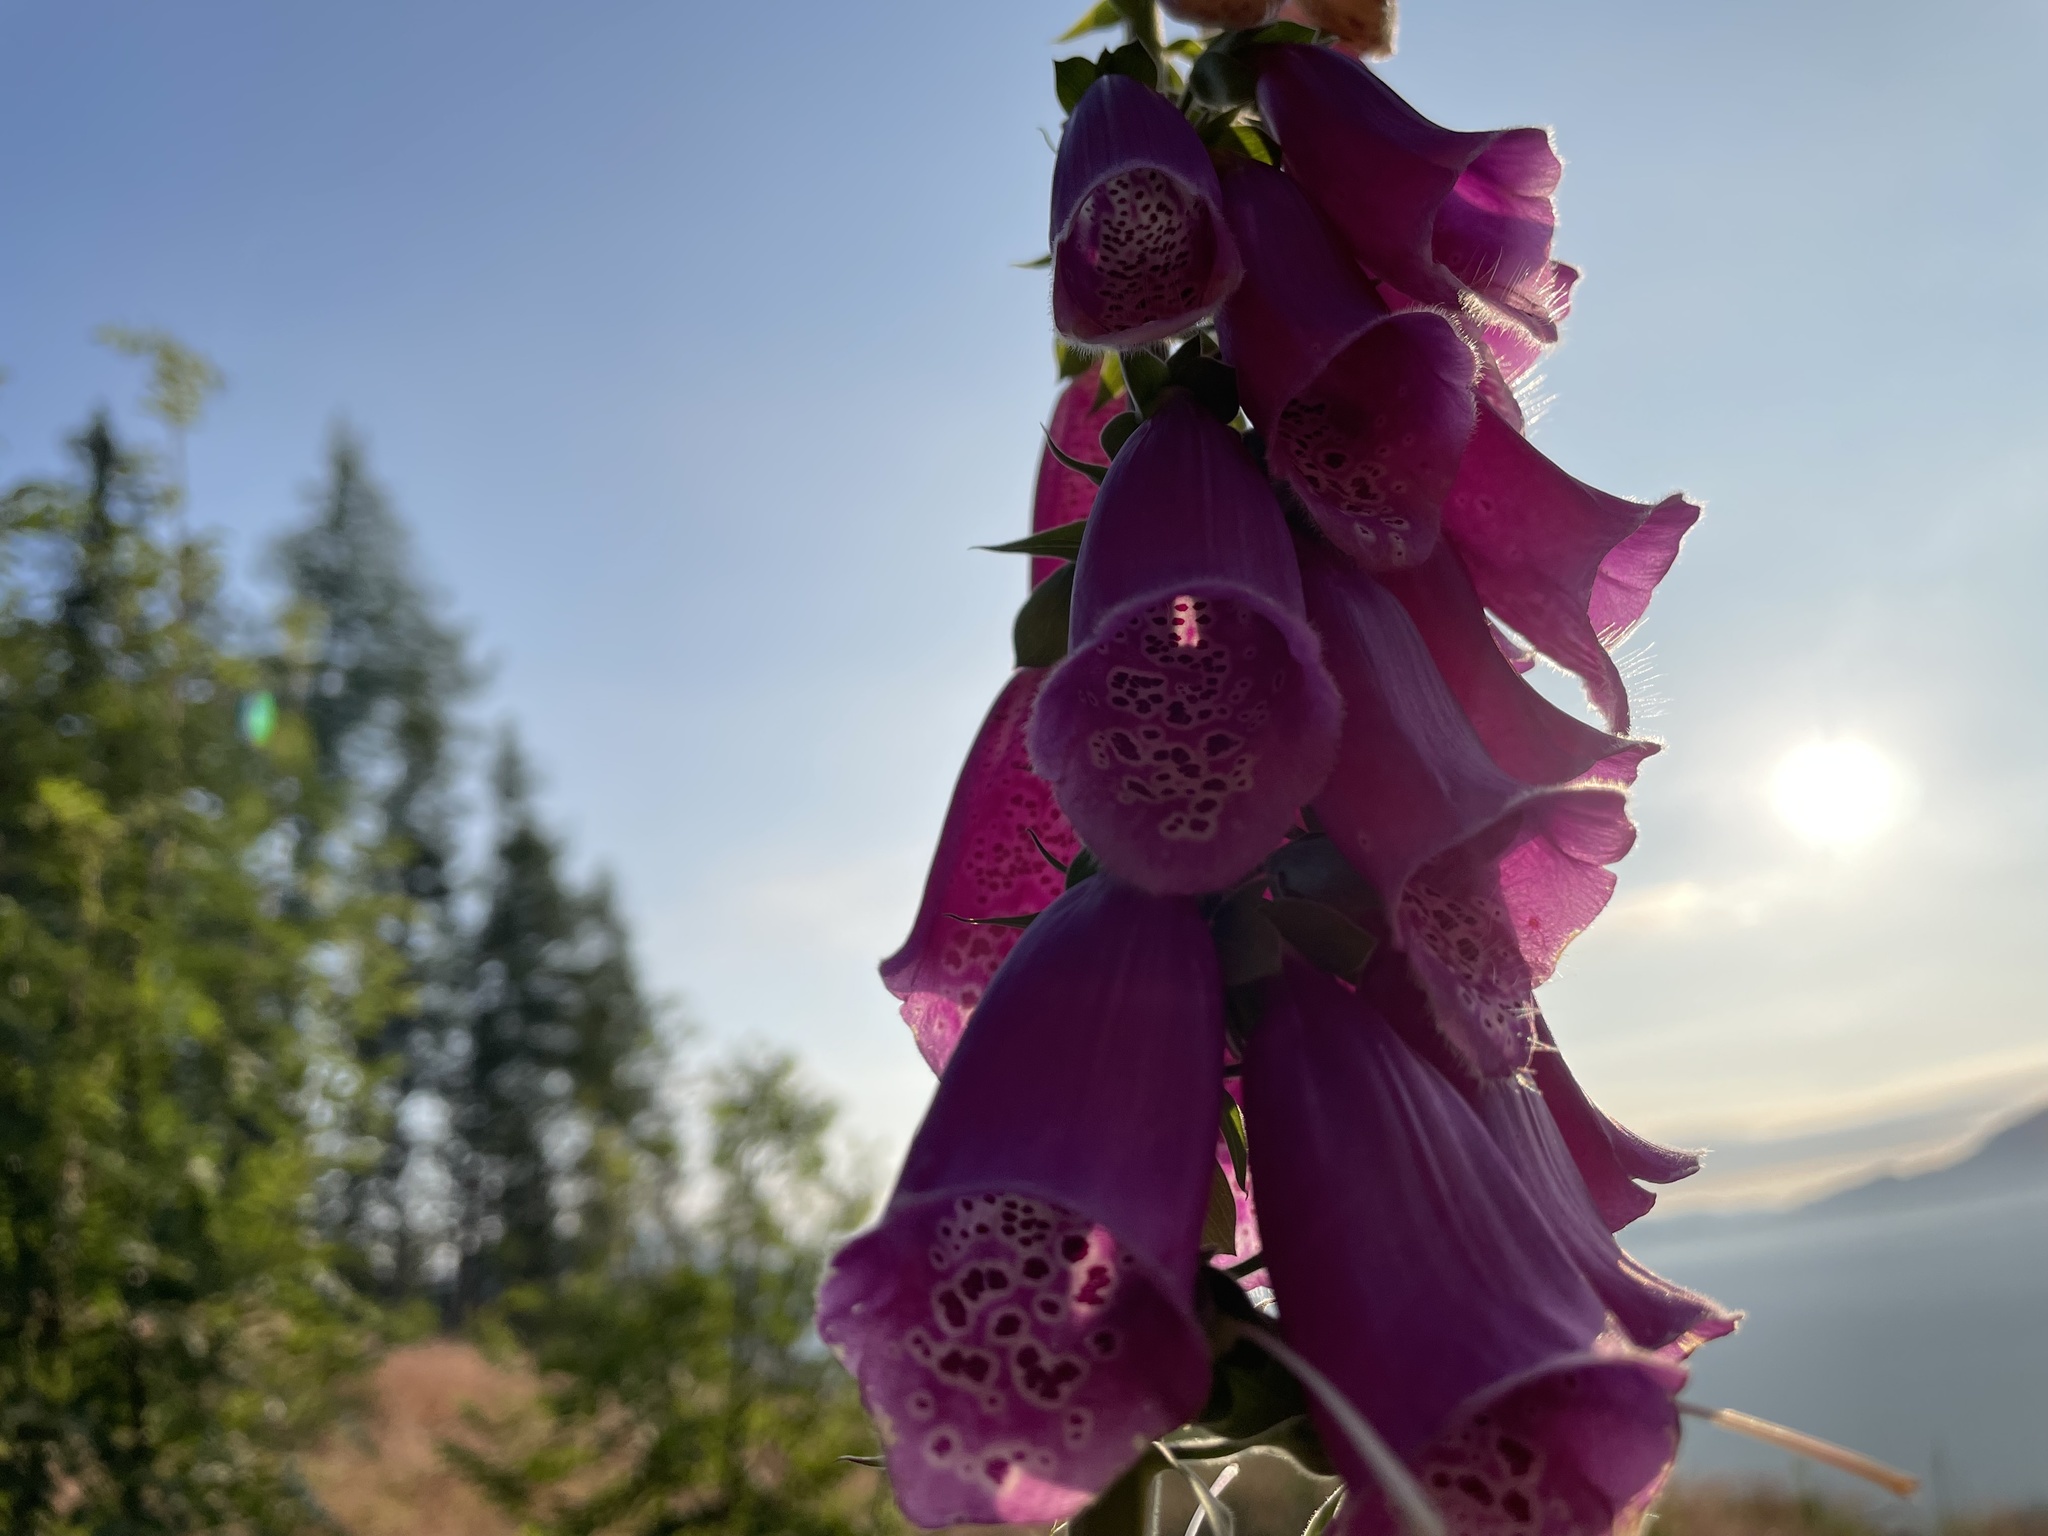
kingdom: Plantae
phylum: Tracheophyta
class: Magnoliopsida
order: Lamiales
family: Plantaginaceae
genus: Digitalis
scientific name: Digitalis purpurea
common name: Foxglove
